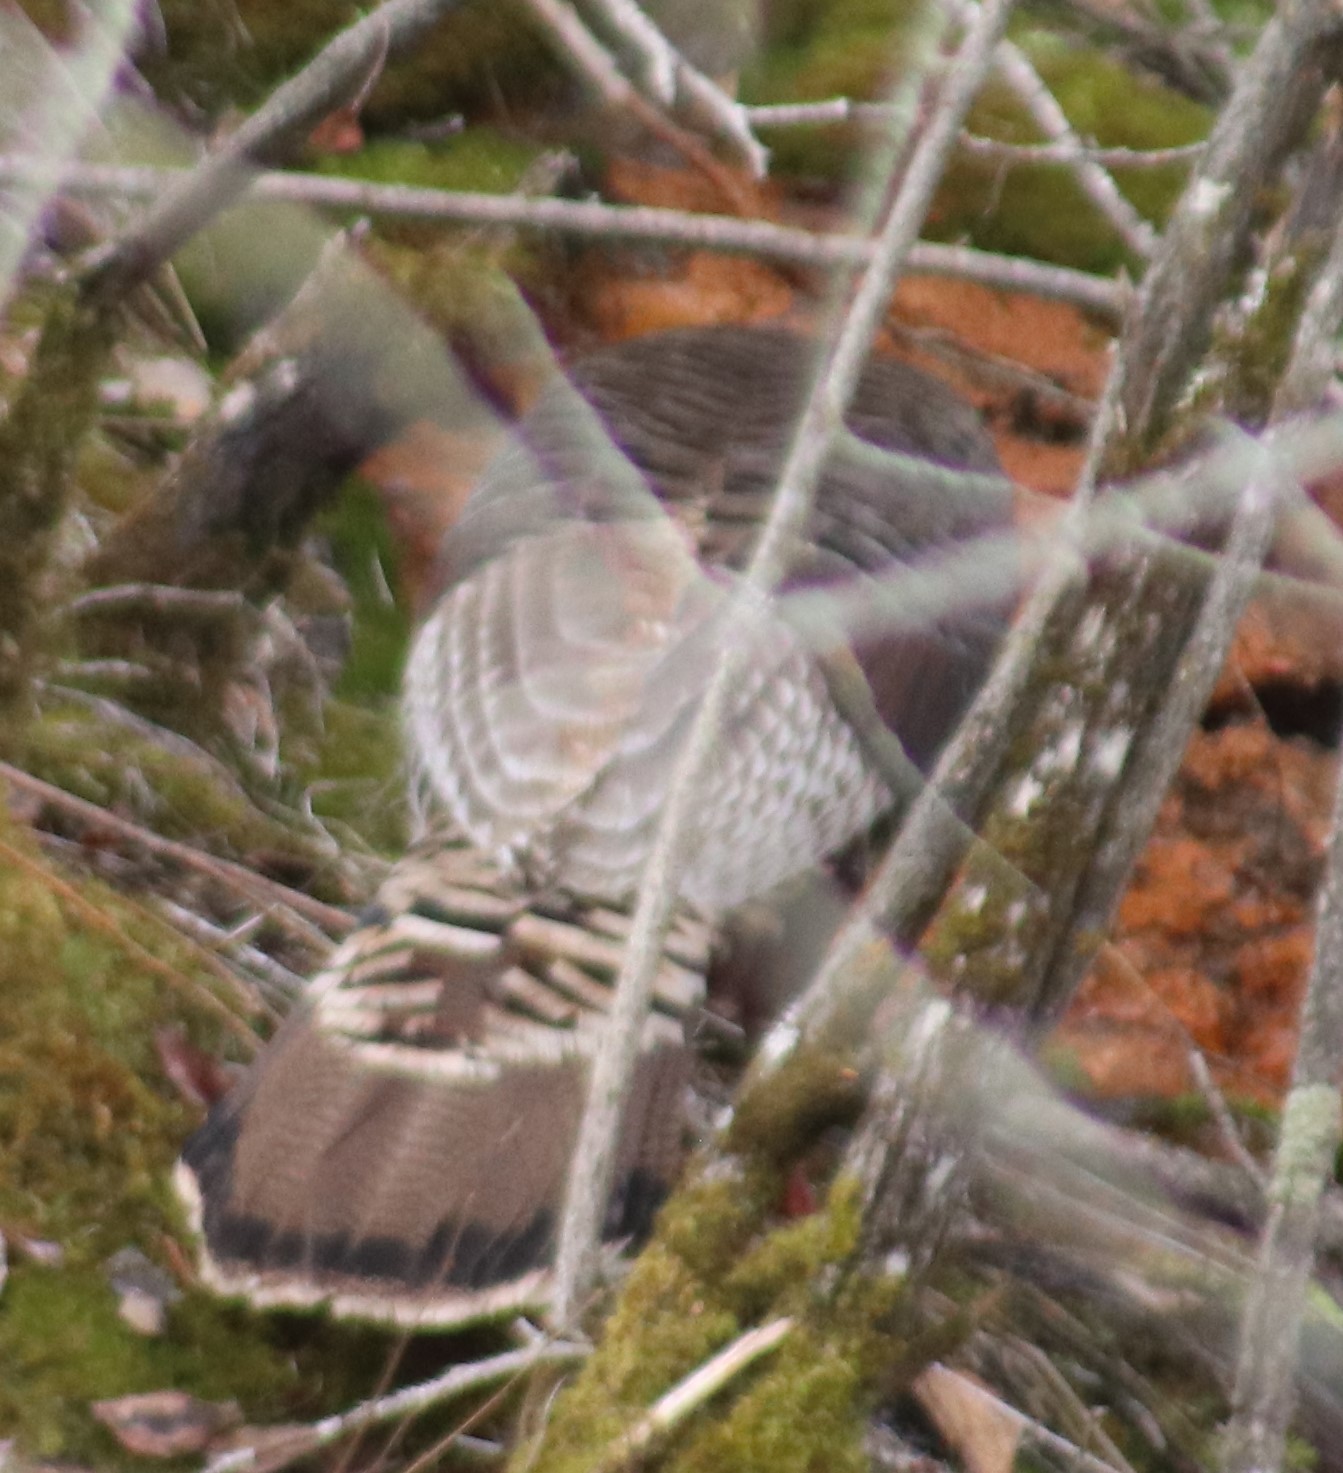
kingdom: Animalia
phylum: Chordata
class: Aves
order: Galliformes
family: Phasianidae
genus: Meleagris
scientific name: Meleagris gallopavo
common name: Wild turkey
